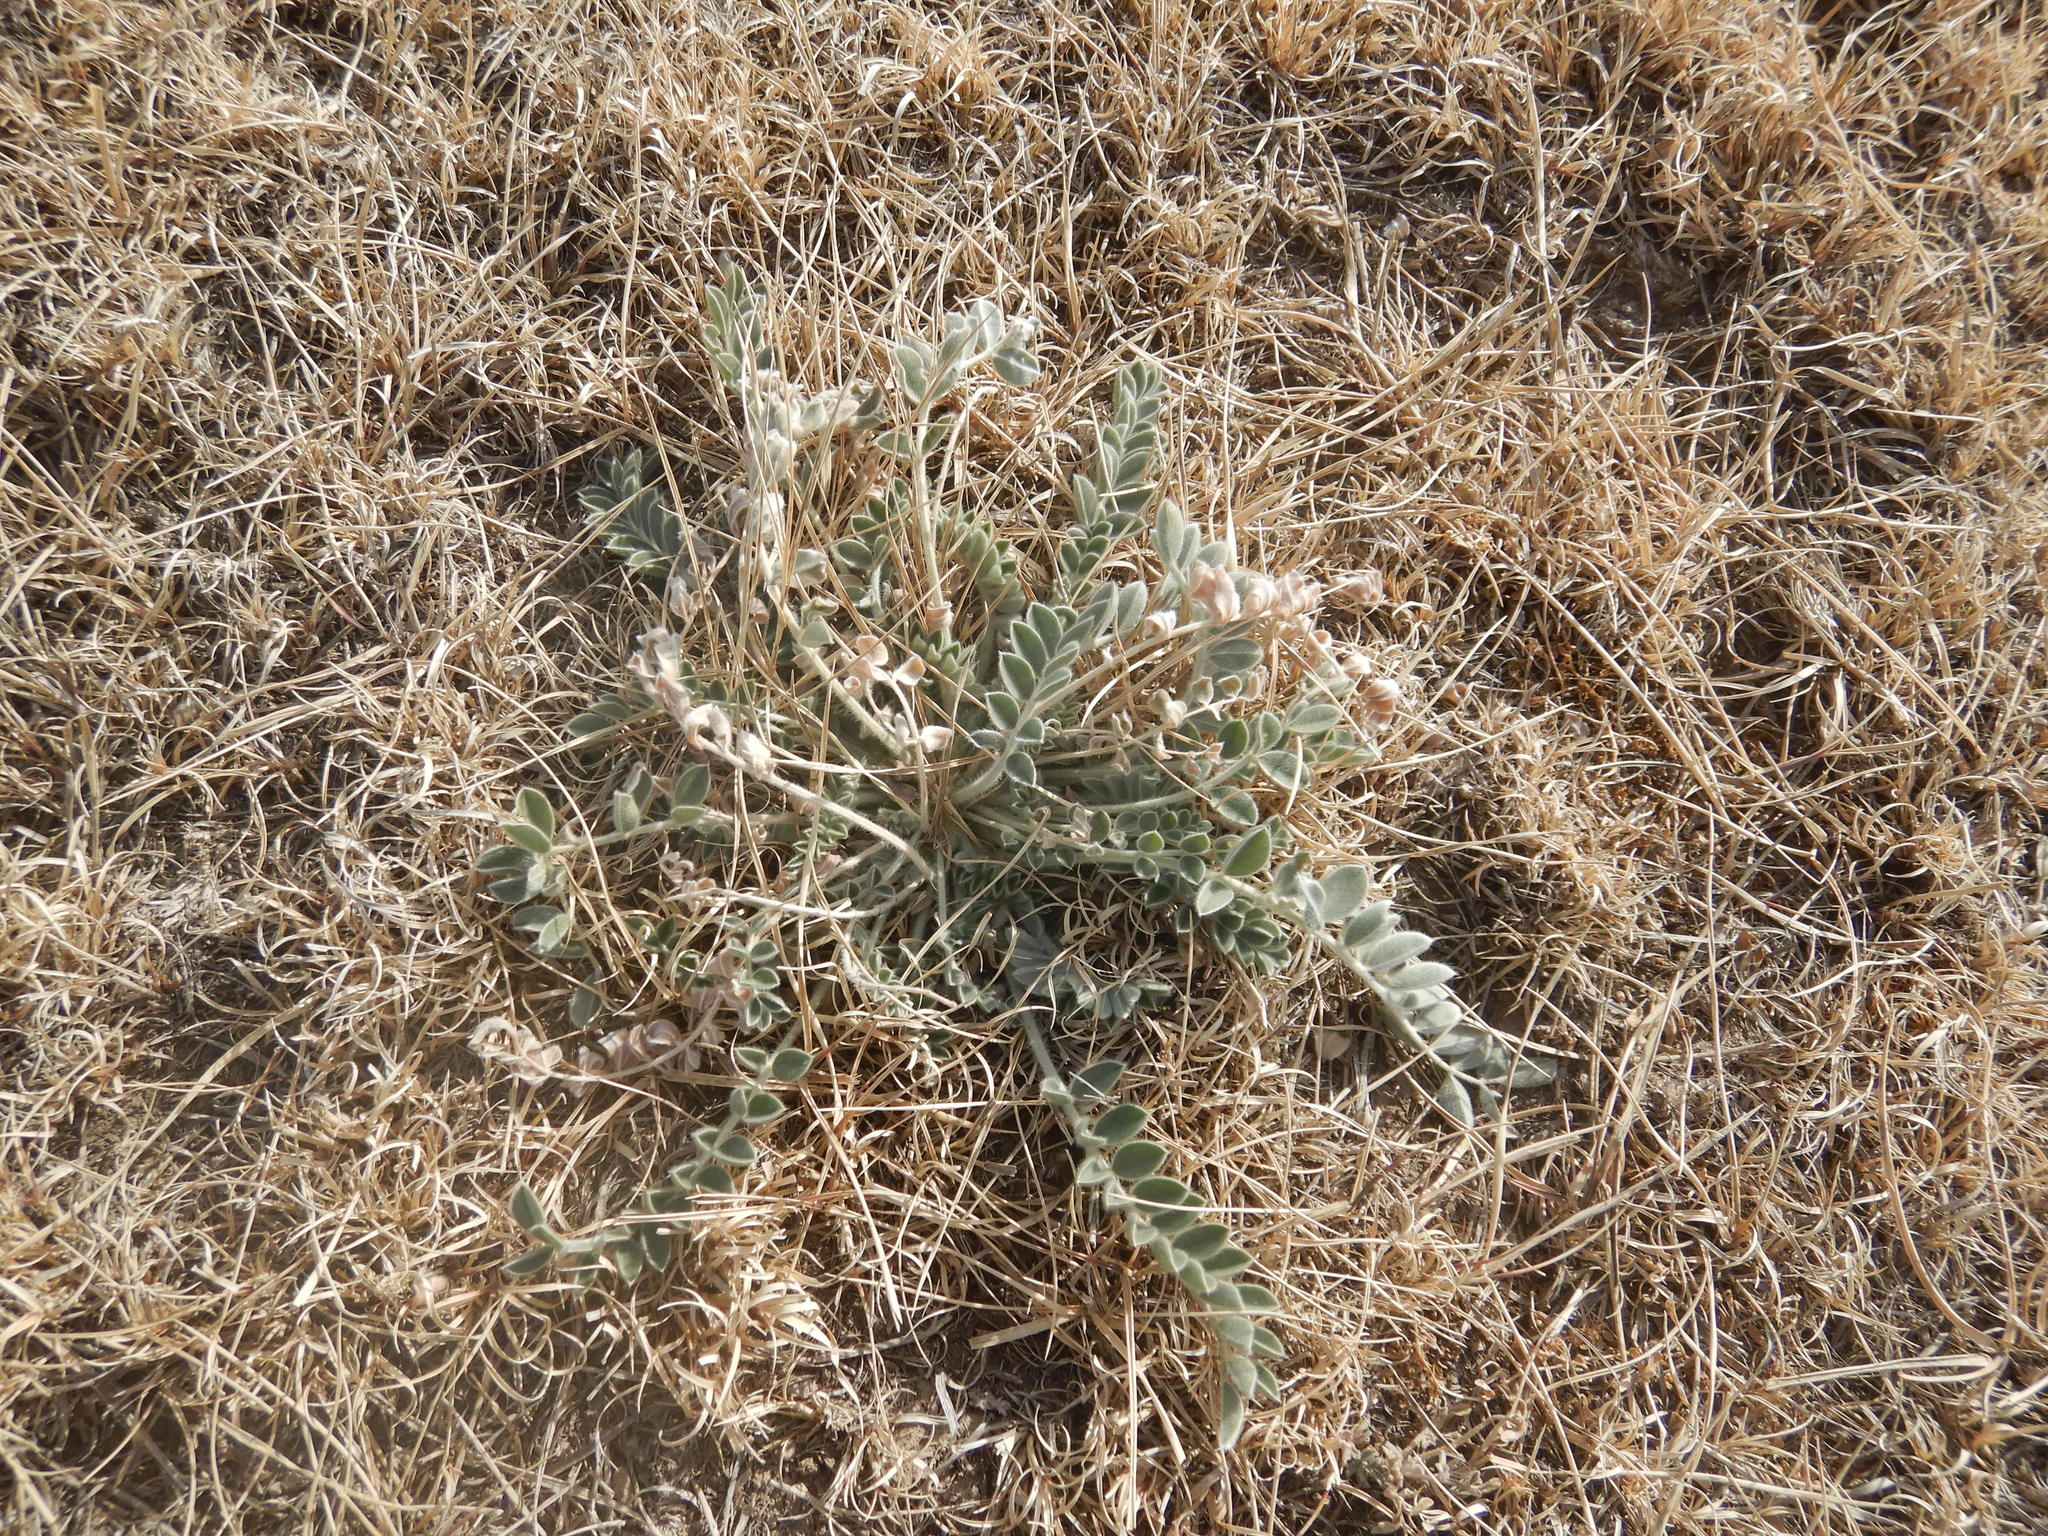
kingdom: Plantae
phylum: Tracheophyta
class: Magnoliopsida
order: Fabales
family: Fabaceae
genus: Astragalus
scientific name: Astragalus mollissimus
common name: Woolly locoweed
